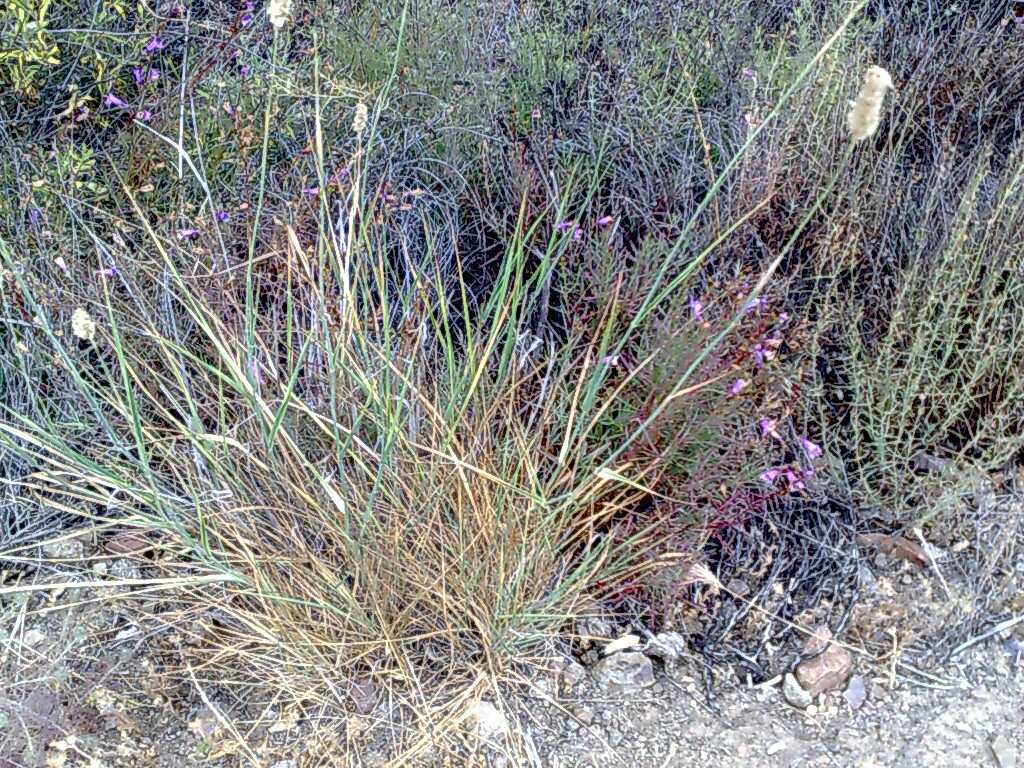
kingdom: Plantae
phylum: Tracheophyta
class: Liliopsida
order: Poales
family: Poaceae
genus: Phalaris
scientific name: Phalaris aquatica
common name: Bulbous canary-grass
